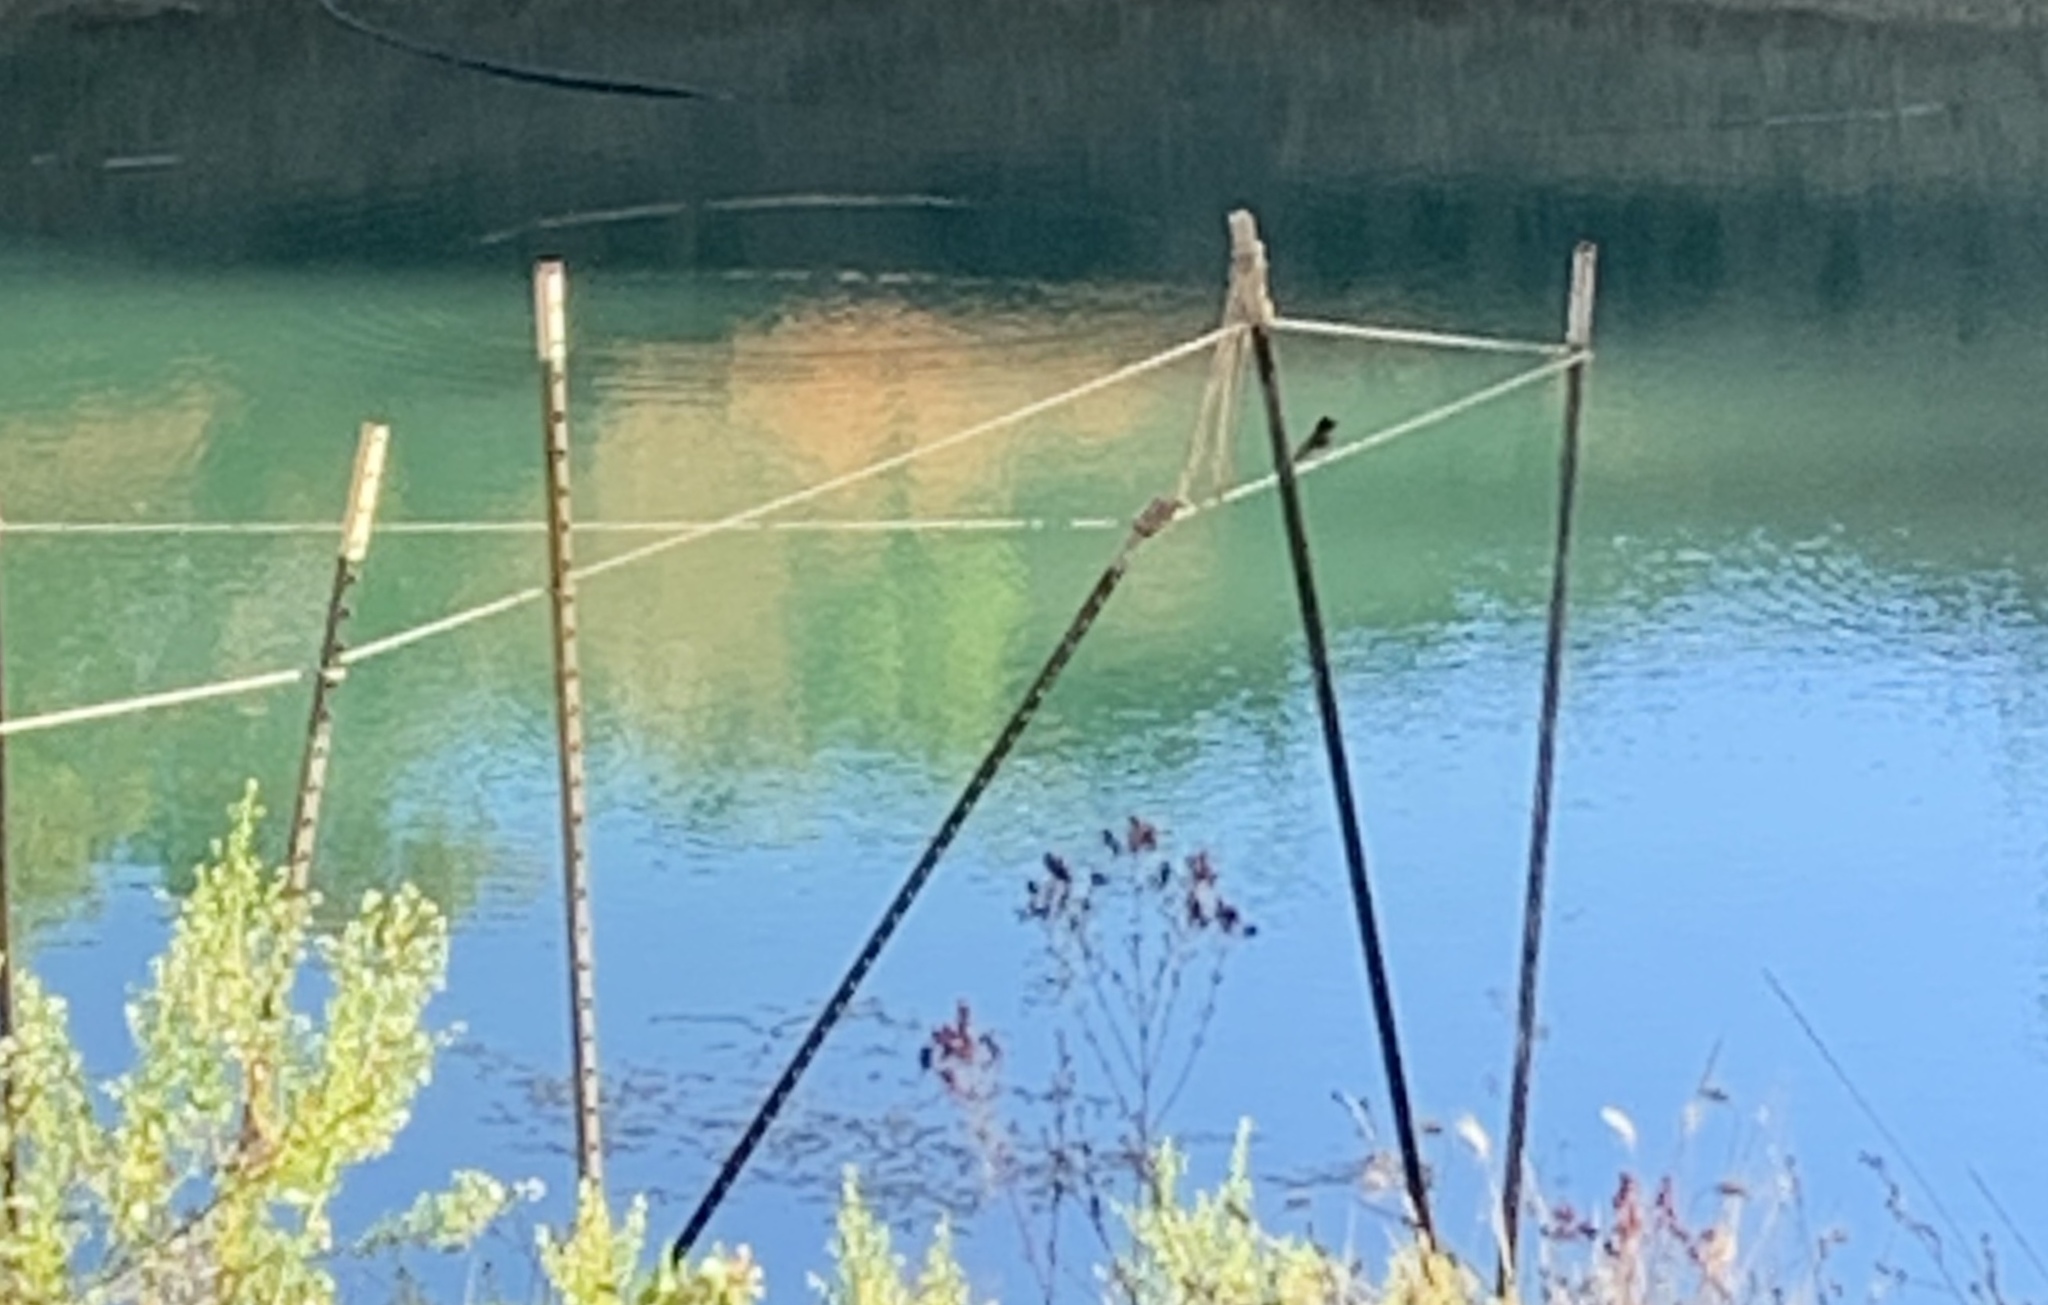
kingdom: Animalia
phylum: Chordata
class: Aves
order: Passeriformes
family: Tyrannidae
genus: Sayornis
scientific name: Sayornis nigricans
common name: Black phoebe
